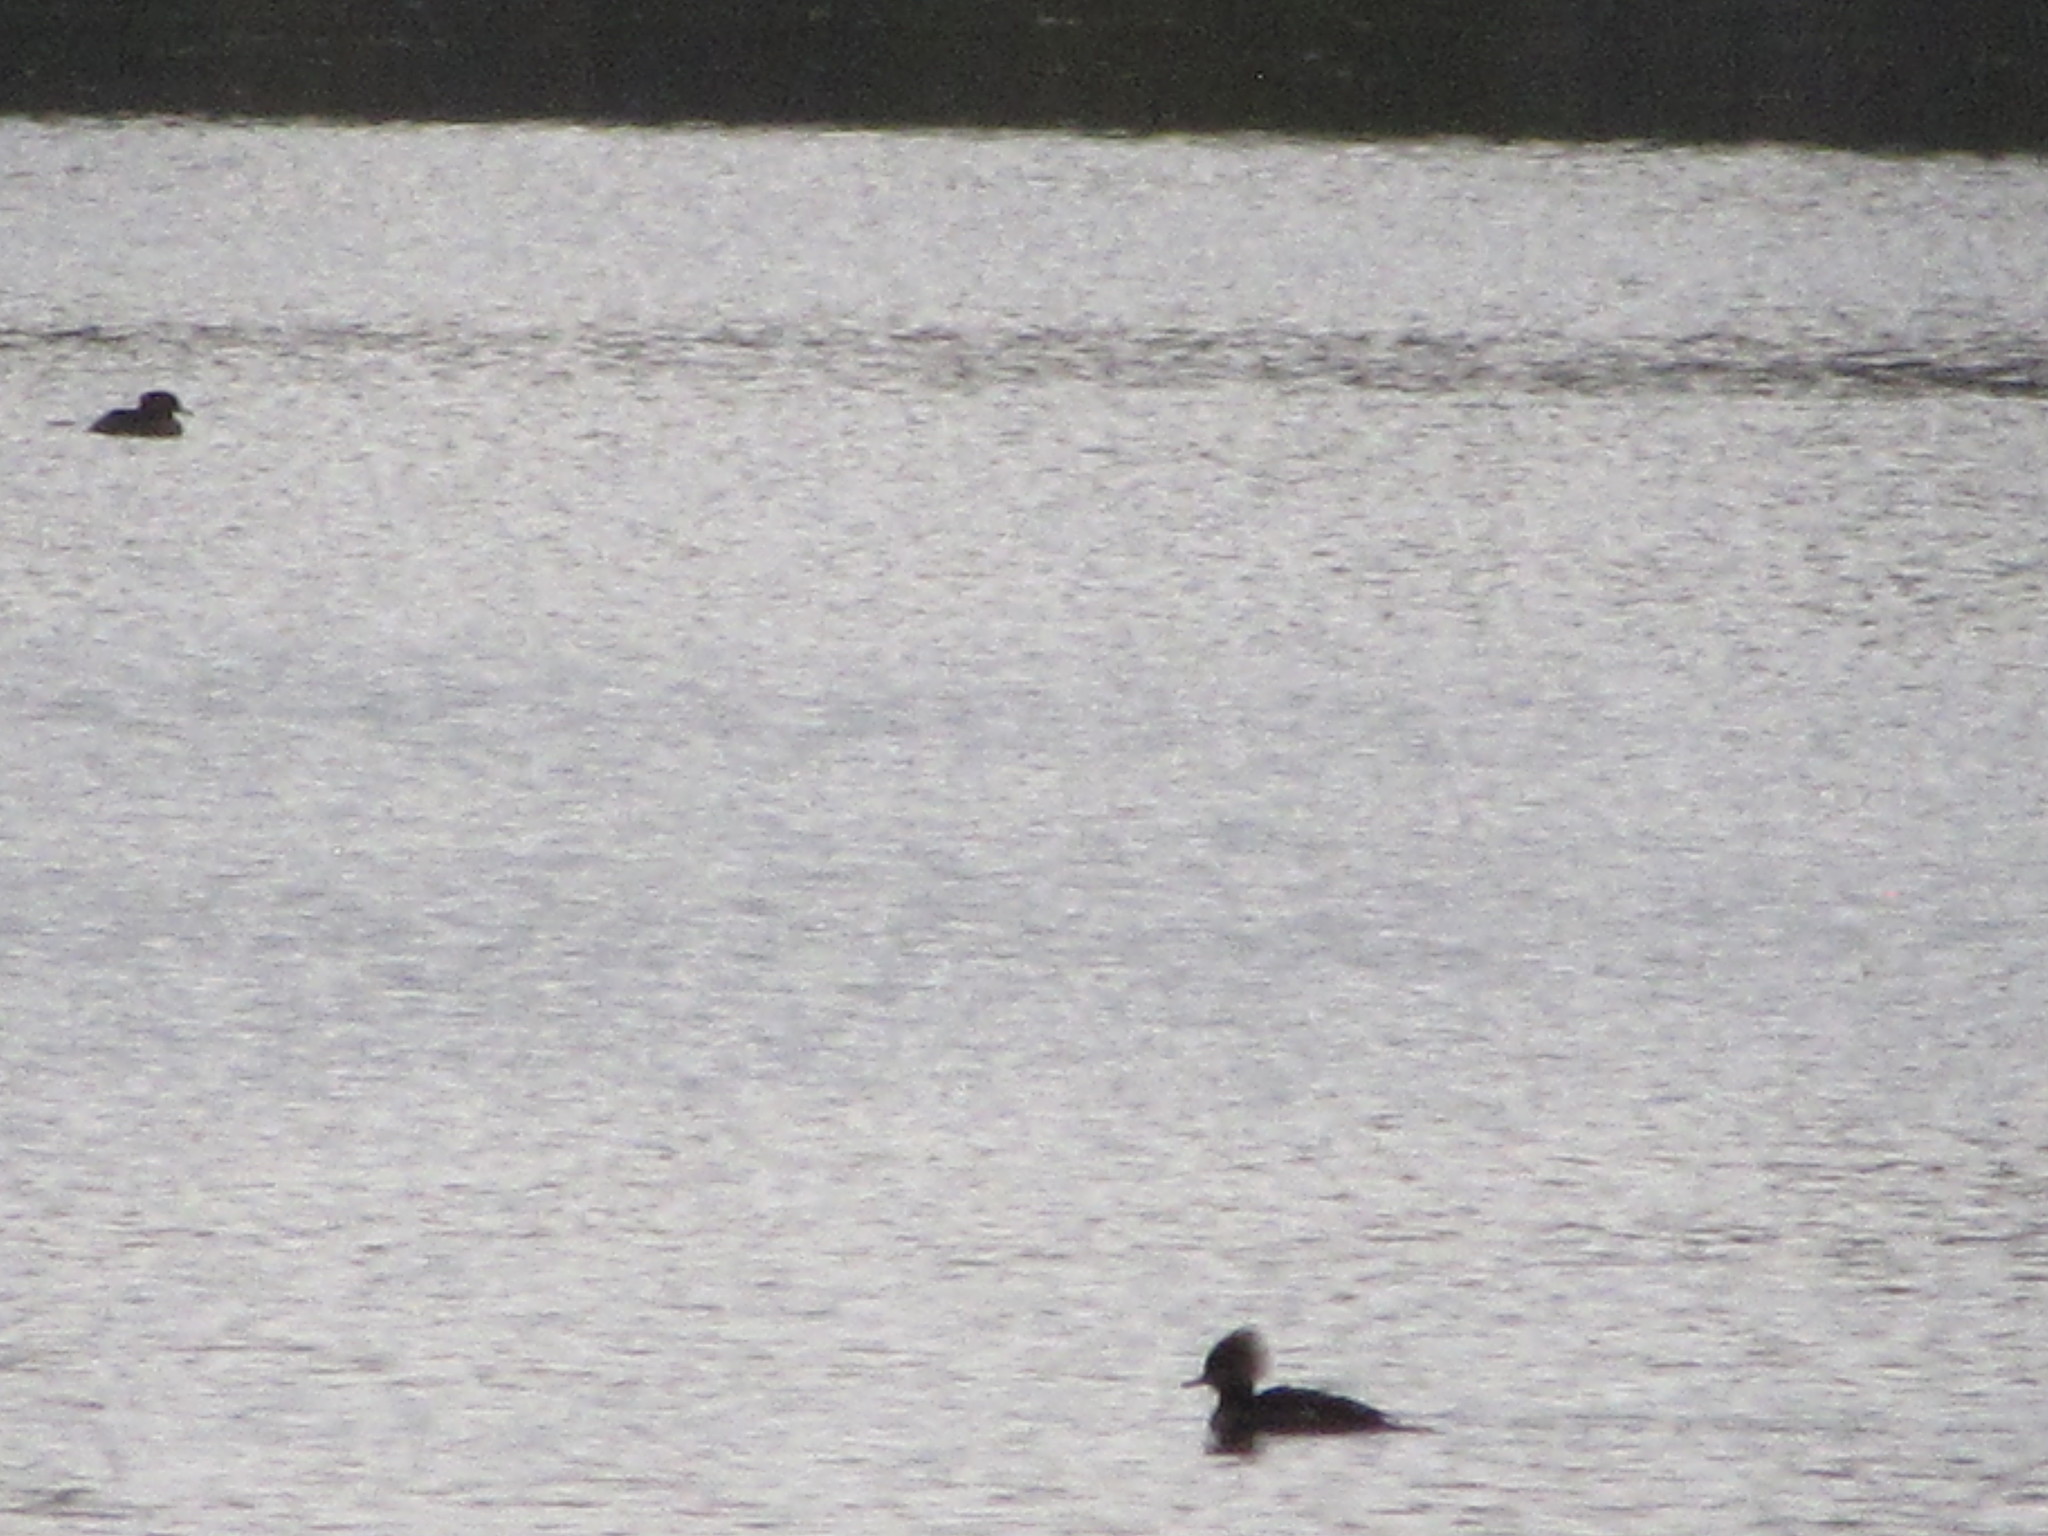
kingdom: Animalia
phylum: Chordata
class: Aves
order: Anseriformes
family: Anatidae
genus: Lophodytes
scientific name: Lophodytes cucullatus
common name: Hooded merganser
